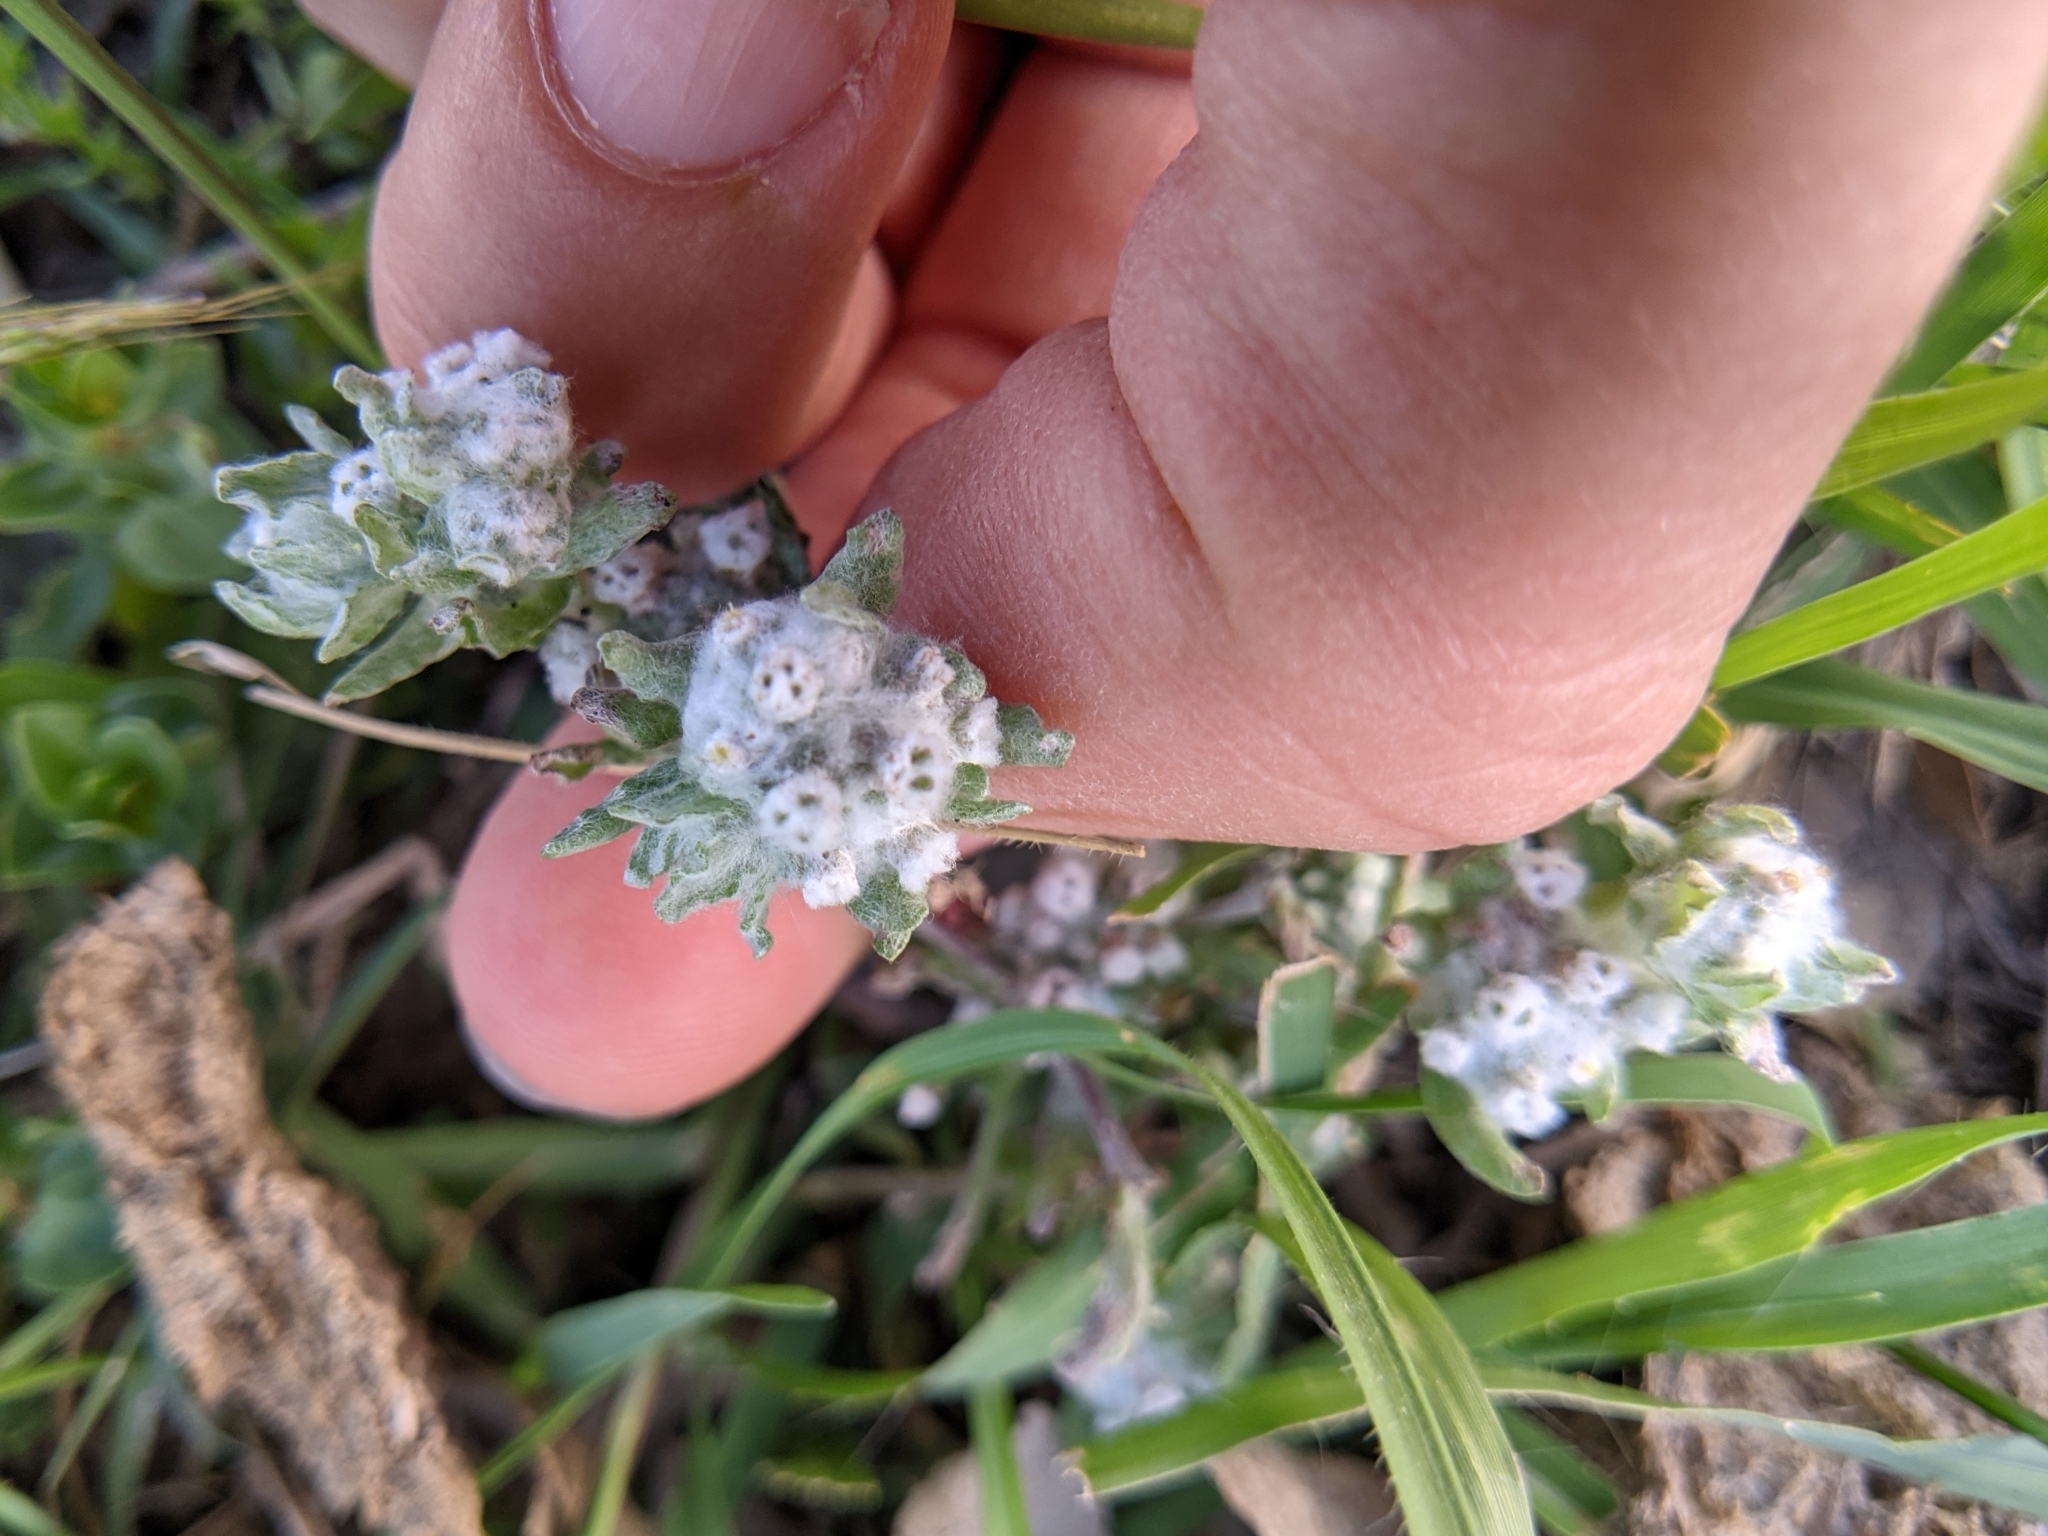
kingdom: Plantae
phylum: Tracheophyta
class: Magnoliopsida
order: Asterales
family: Asteraceae
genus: Diaperia
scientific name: Diaperia verna
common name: Many-stem rabbit-tobacco
